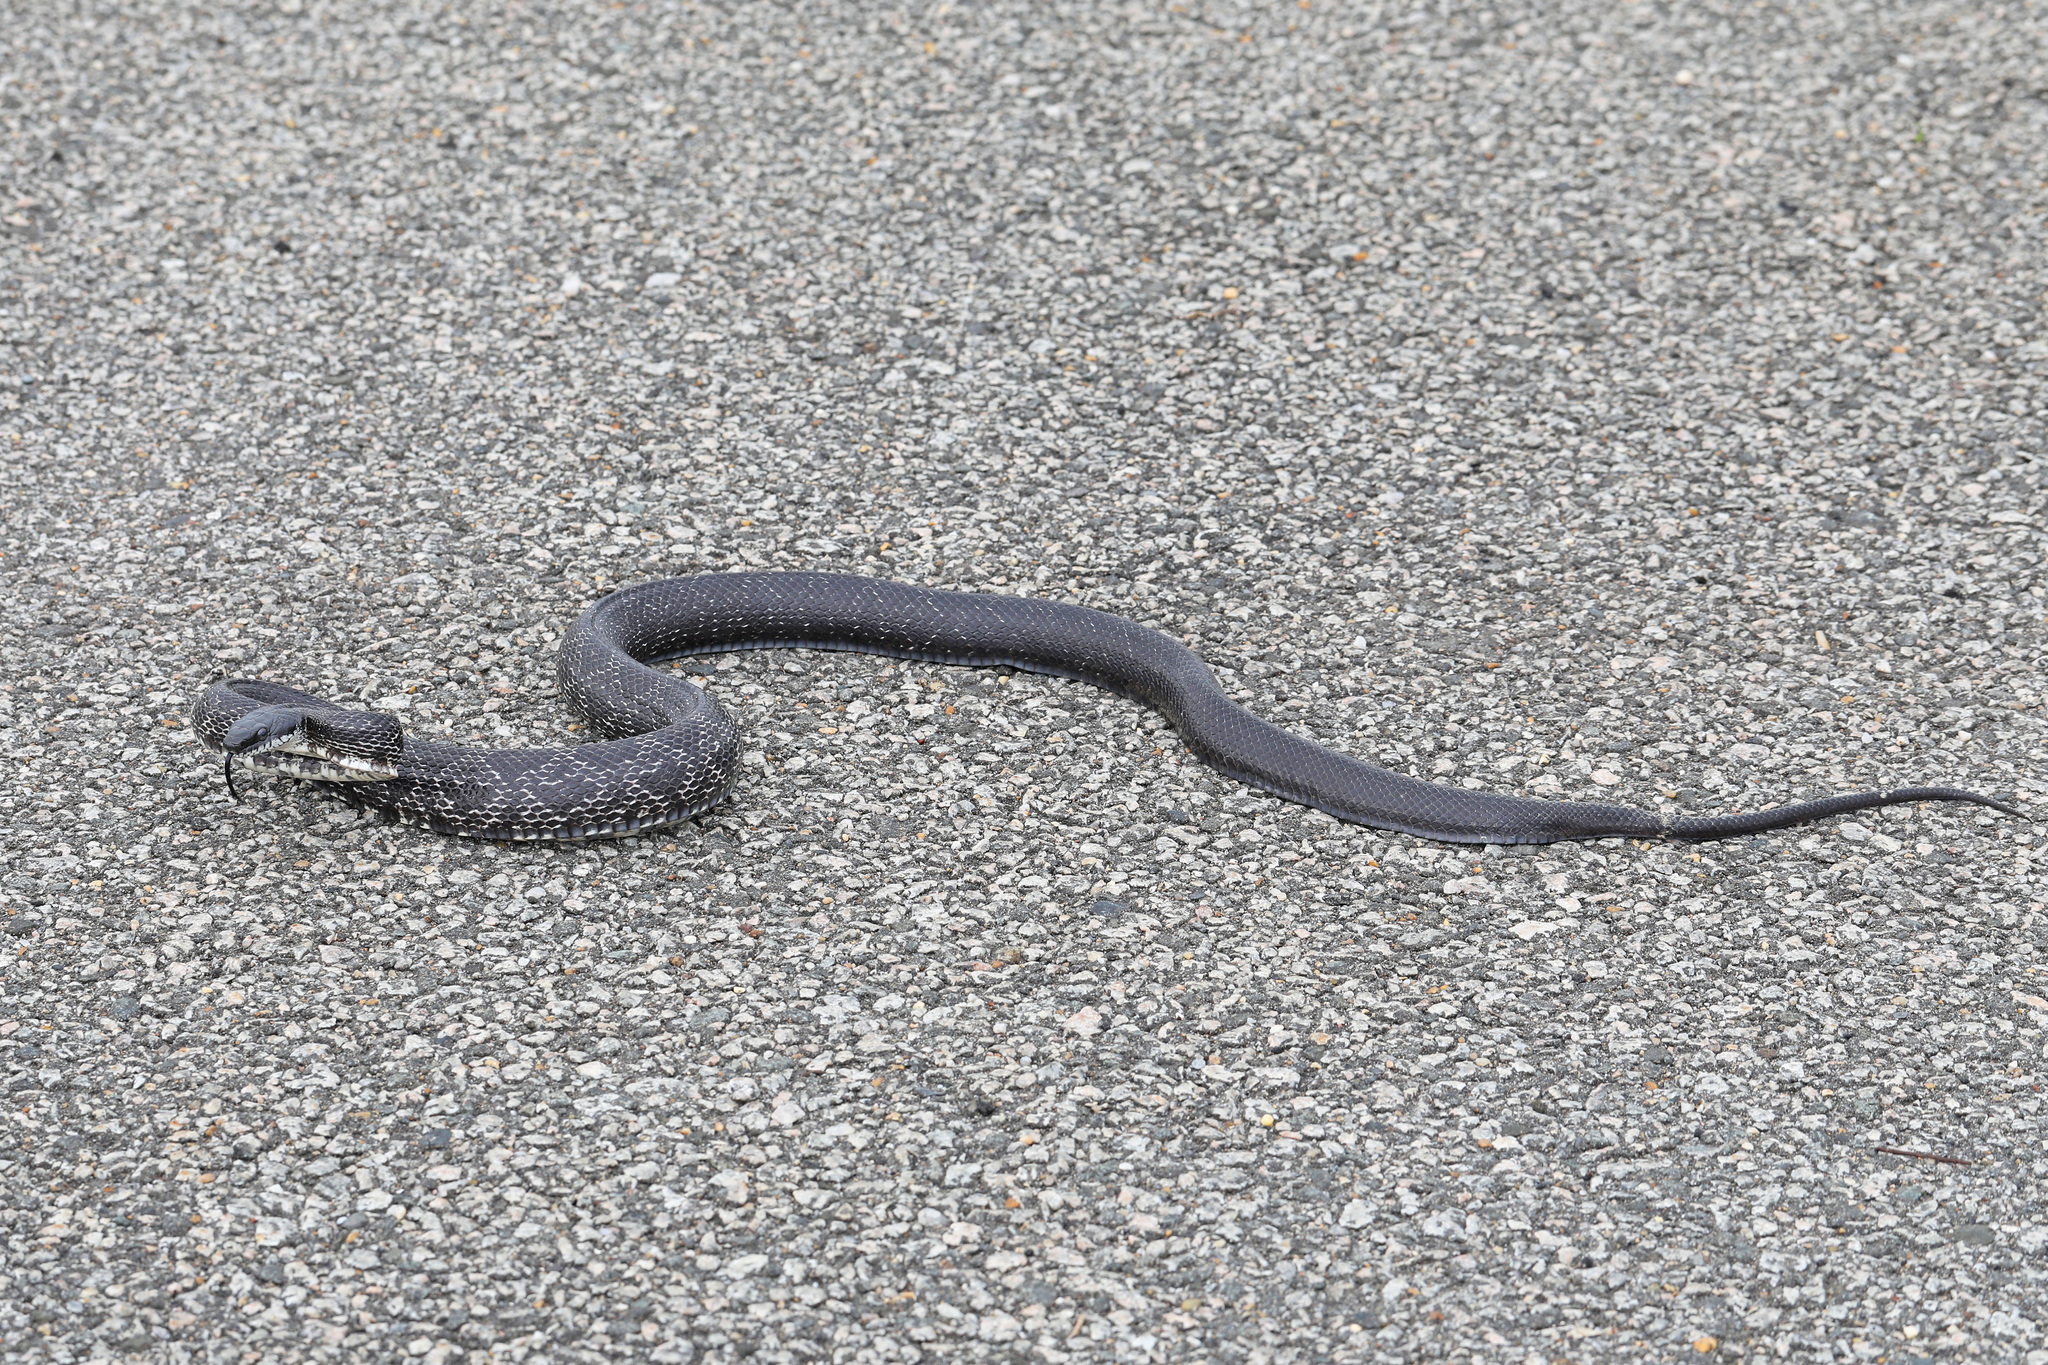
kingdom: Animalia
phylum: Chordata
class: Squamata
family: Colubridae
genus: Pantherophis
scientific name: Pantherophis alleghaniensis
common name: Eastern rat snake
